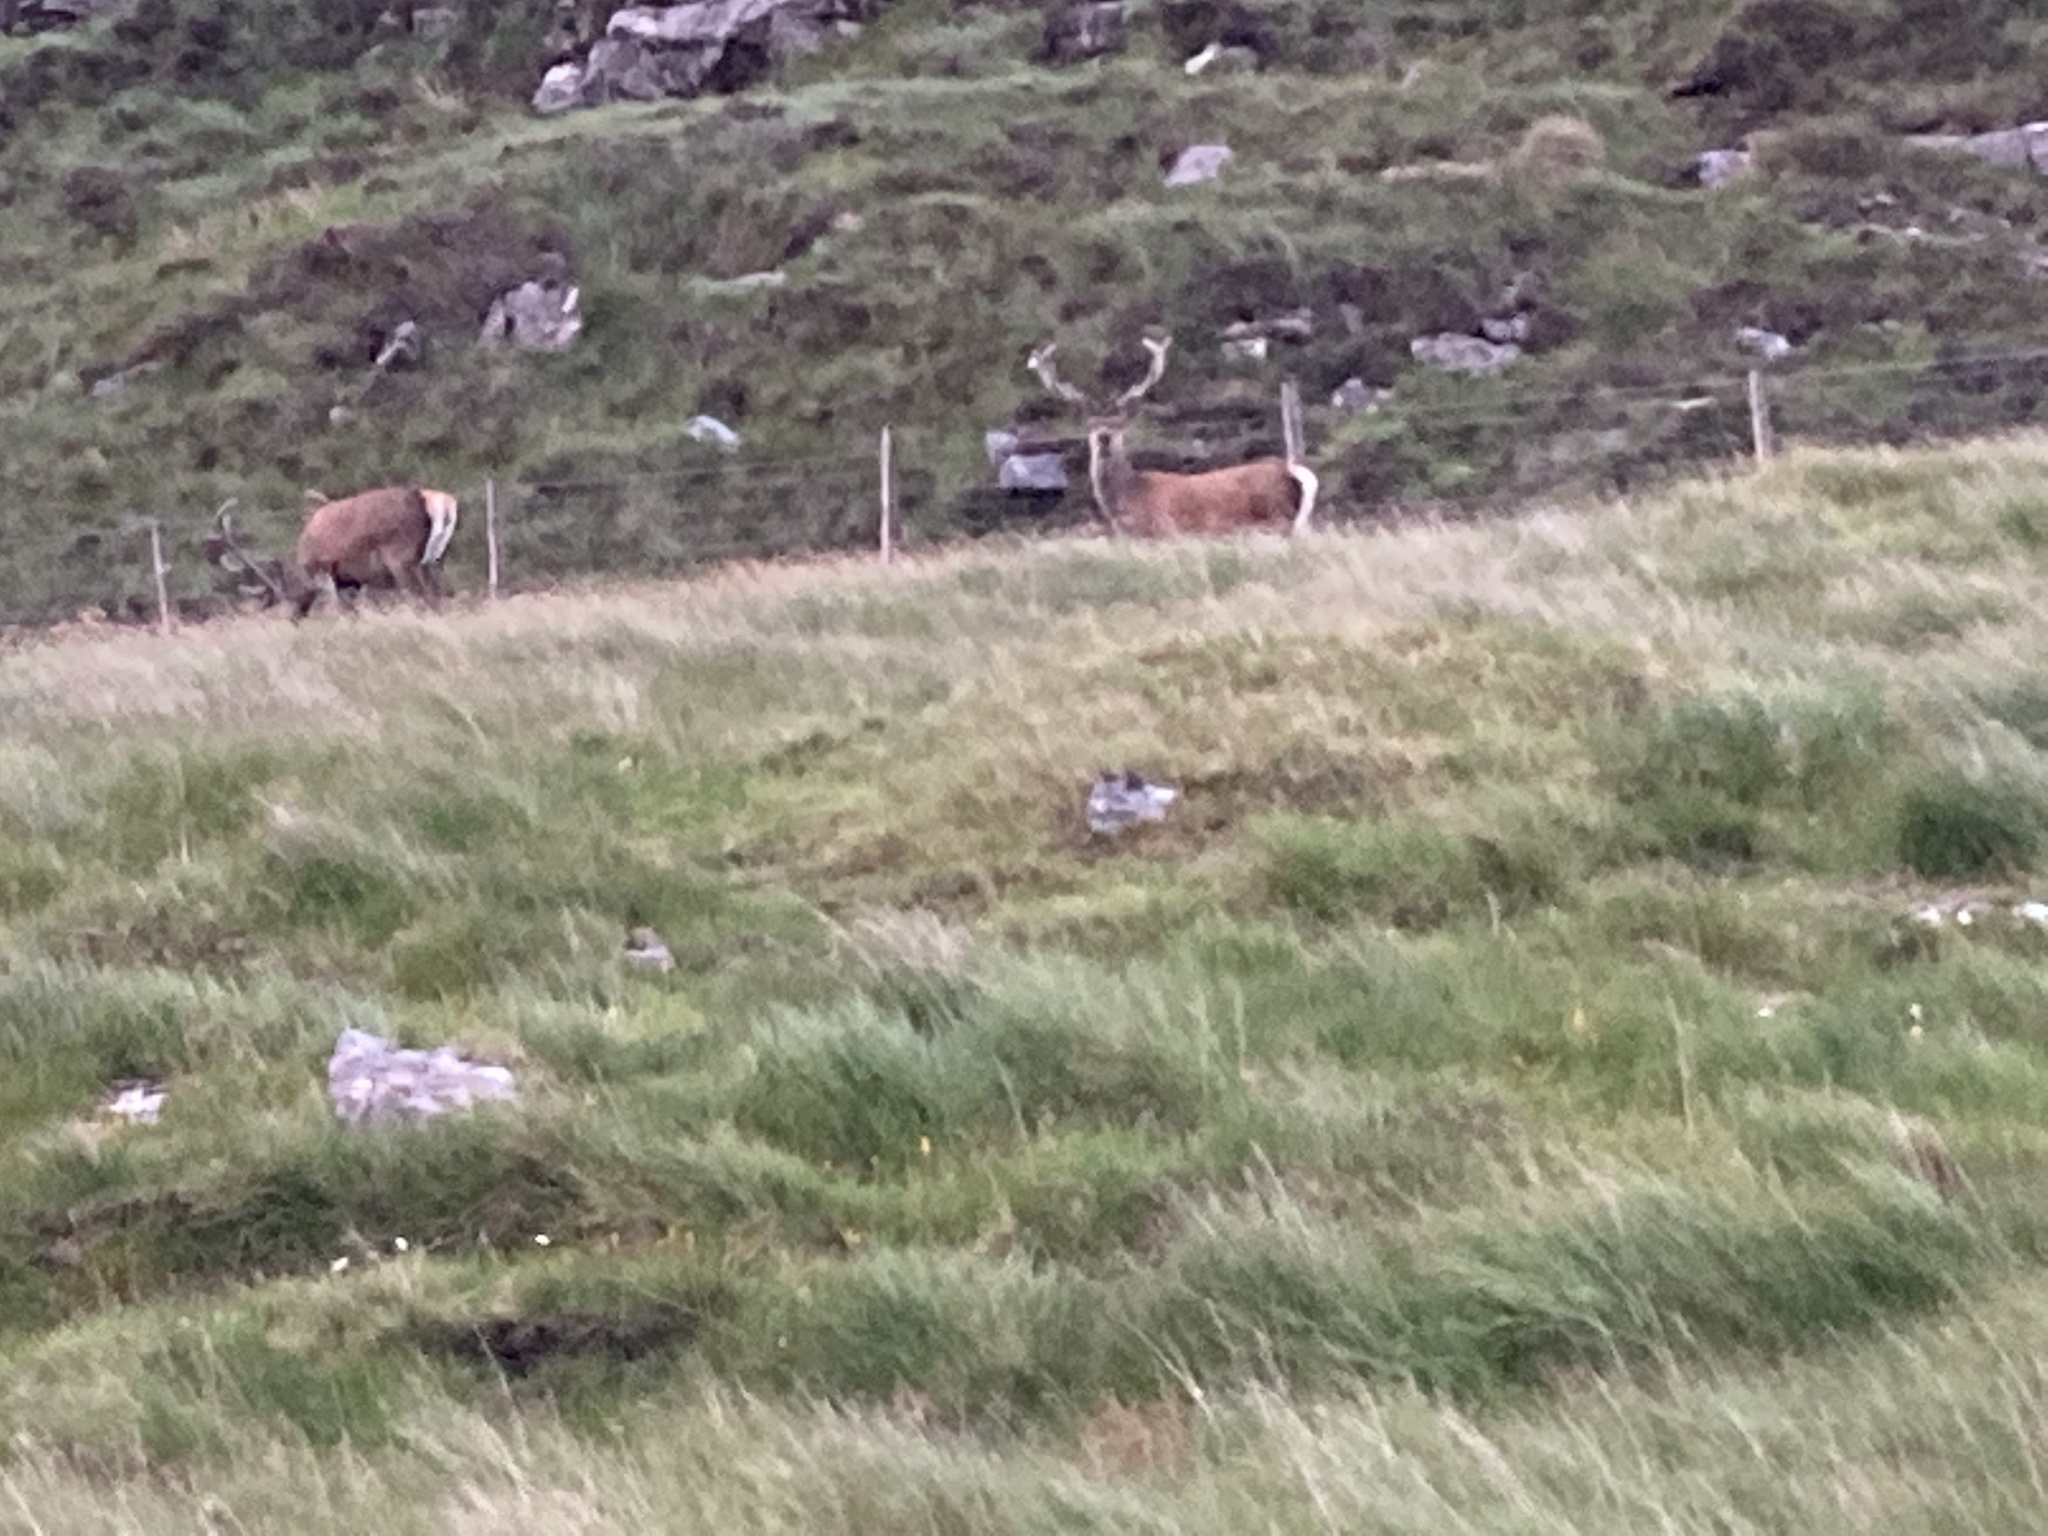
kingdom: Animalia
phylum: Chordata
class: Mammalia
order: Artiodactyla
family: Cervidae
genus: Cervus
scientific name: Cervus elaphus
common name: Red deer
